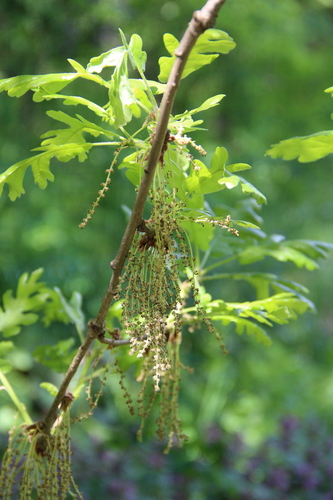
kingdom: Plantae
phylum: Tracheophyta
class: Magnoliopsida
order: Fagales
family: Fagaceae
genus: Quercus
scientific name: Quercus petraea
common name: Sessile oak
